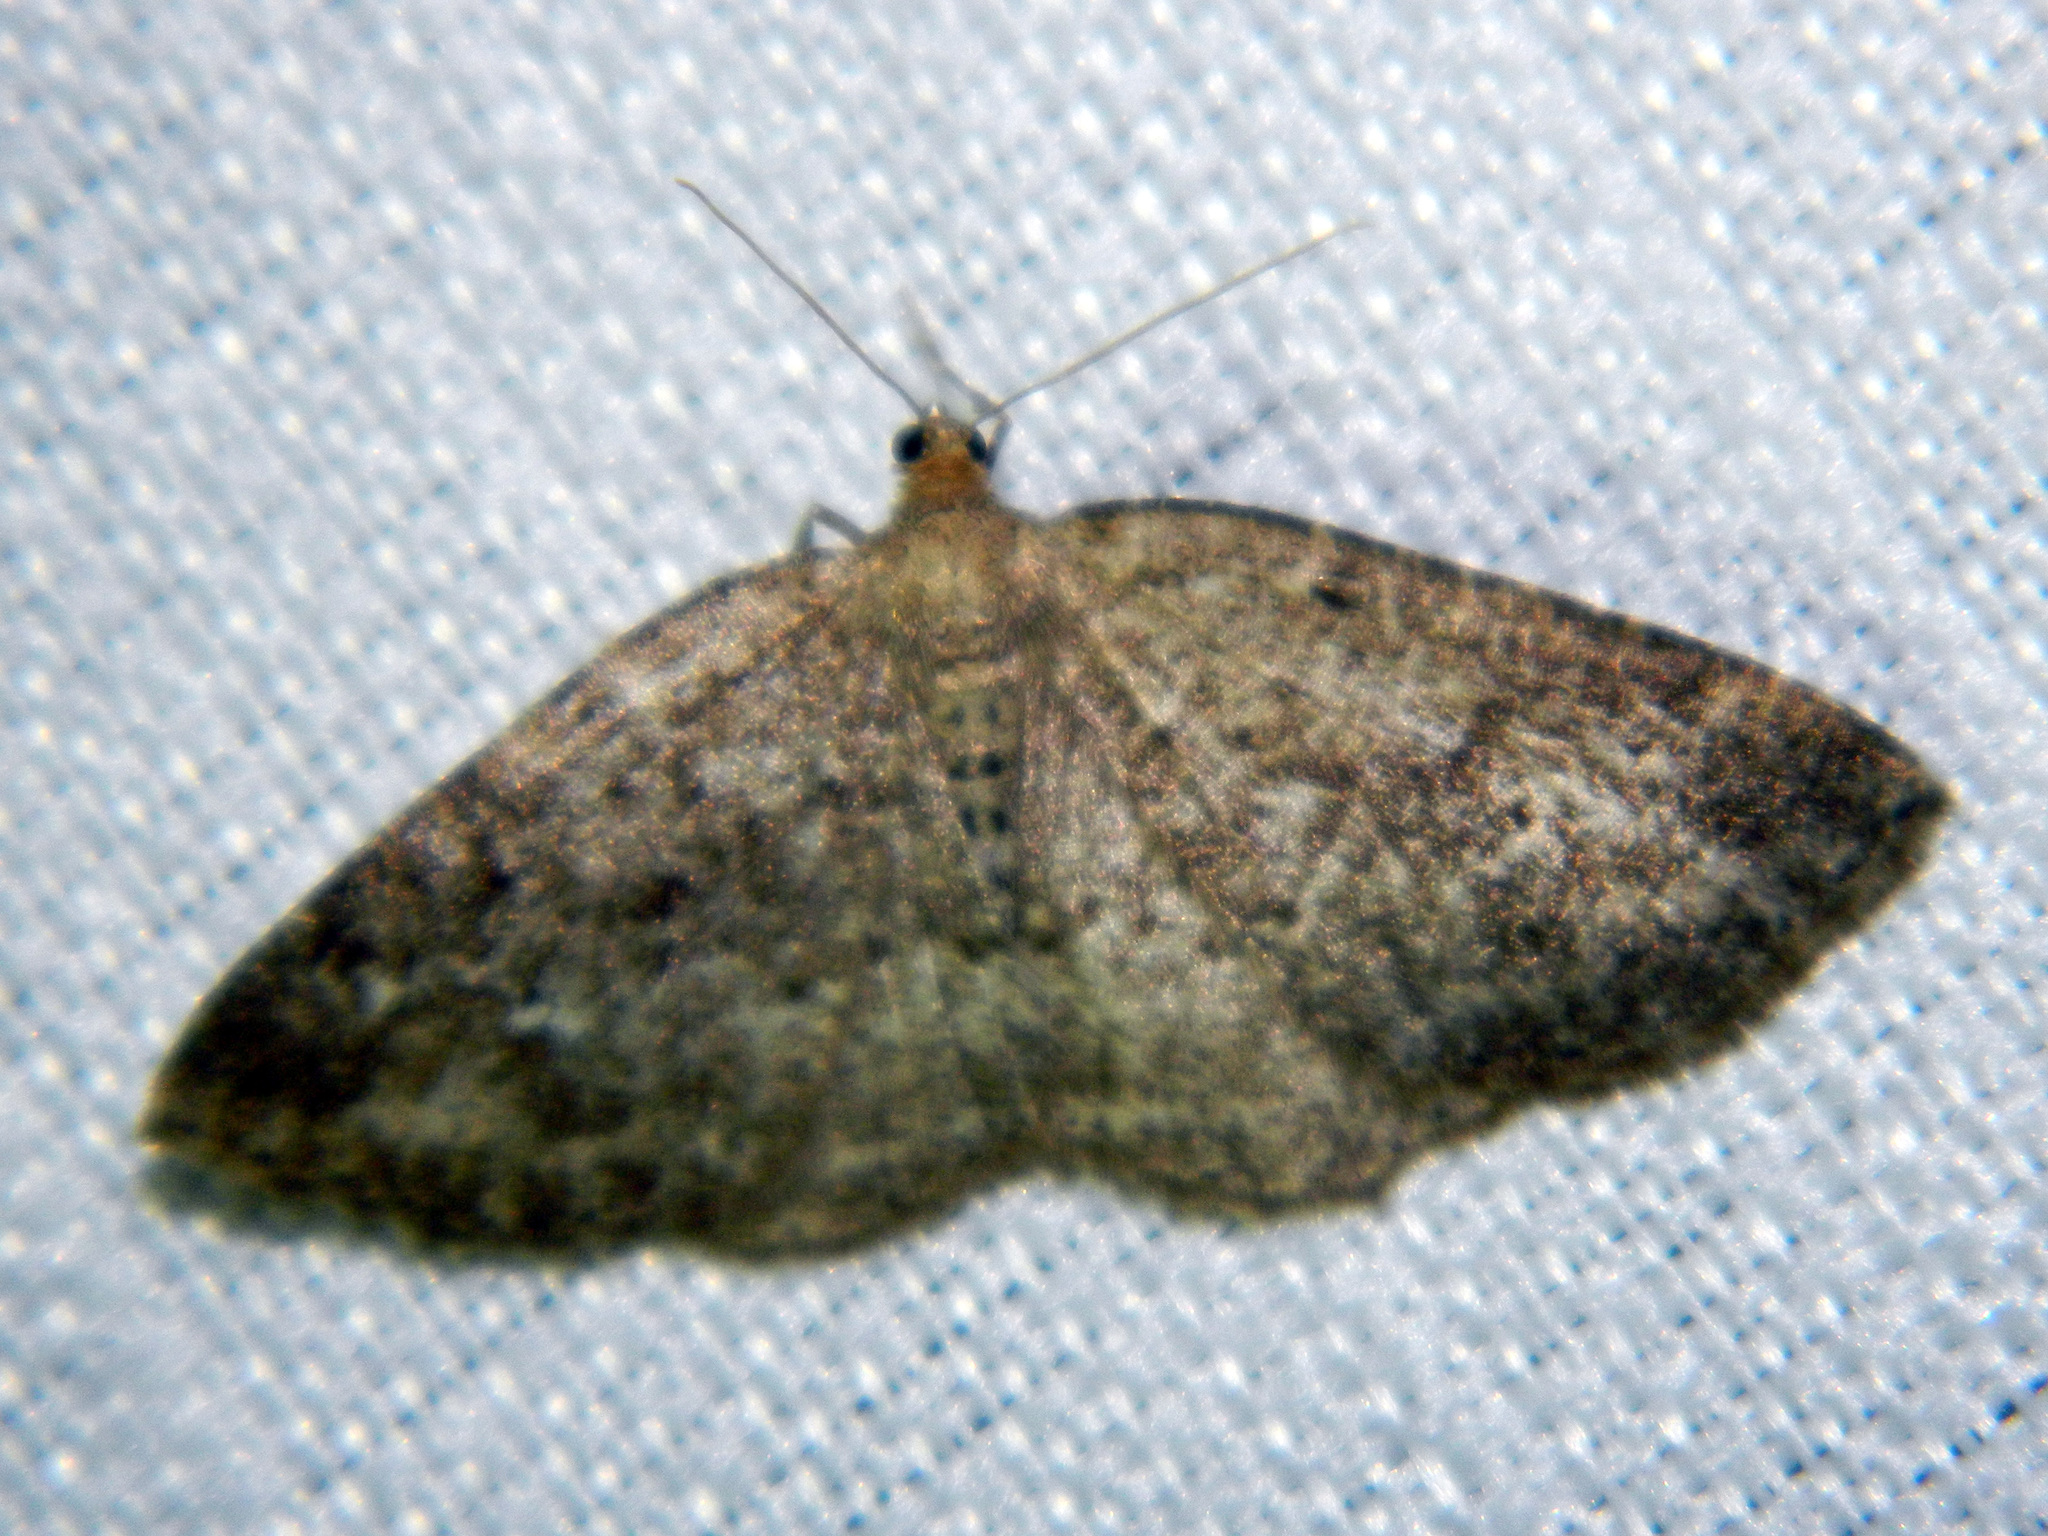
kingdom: Animalia
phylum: Arthropoda
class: Insecta
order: Lepidoptera
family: Geometridae
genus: Homochlodes
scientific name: Homochlodes fritillaria
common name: Pale homochlodes
